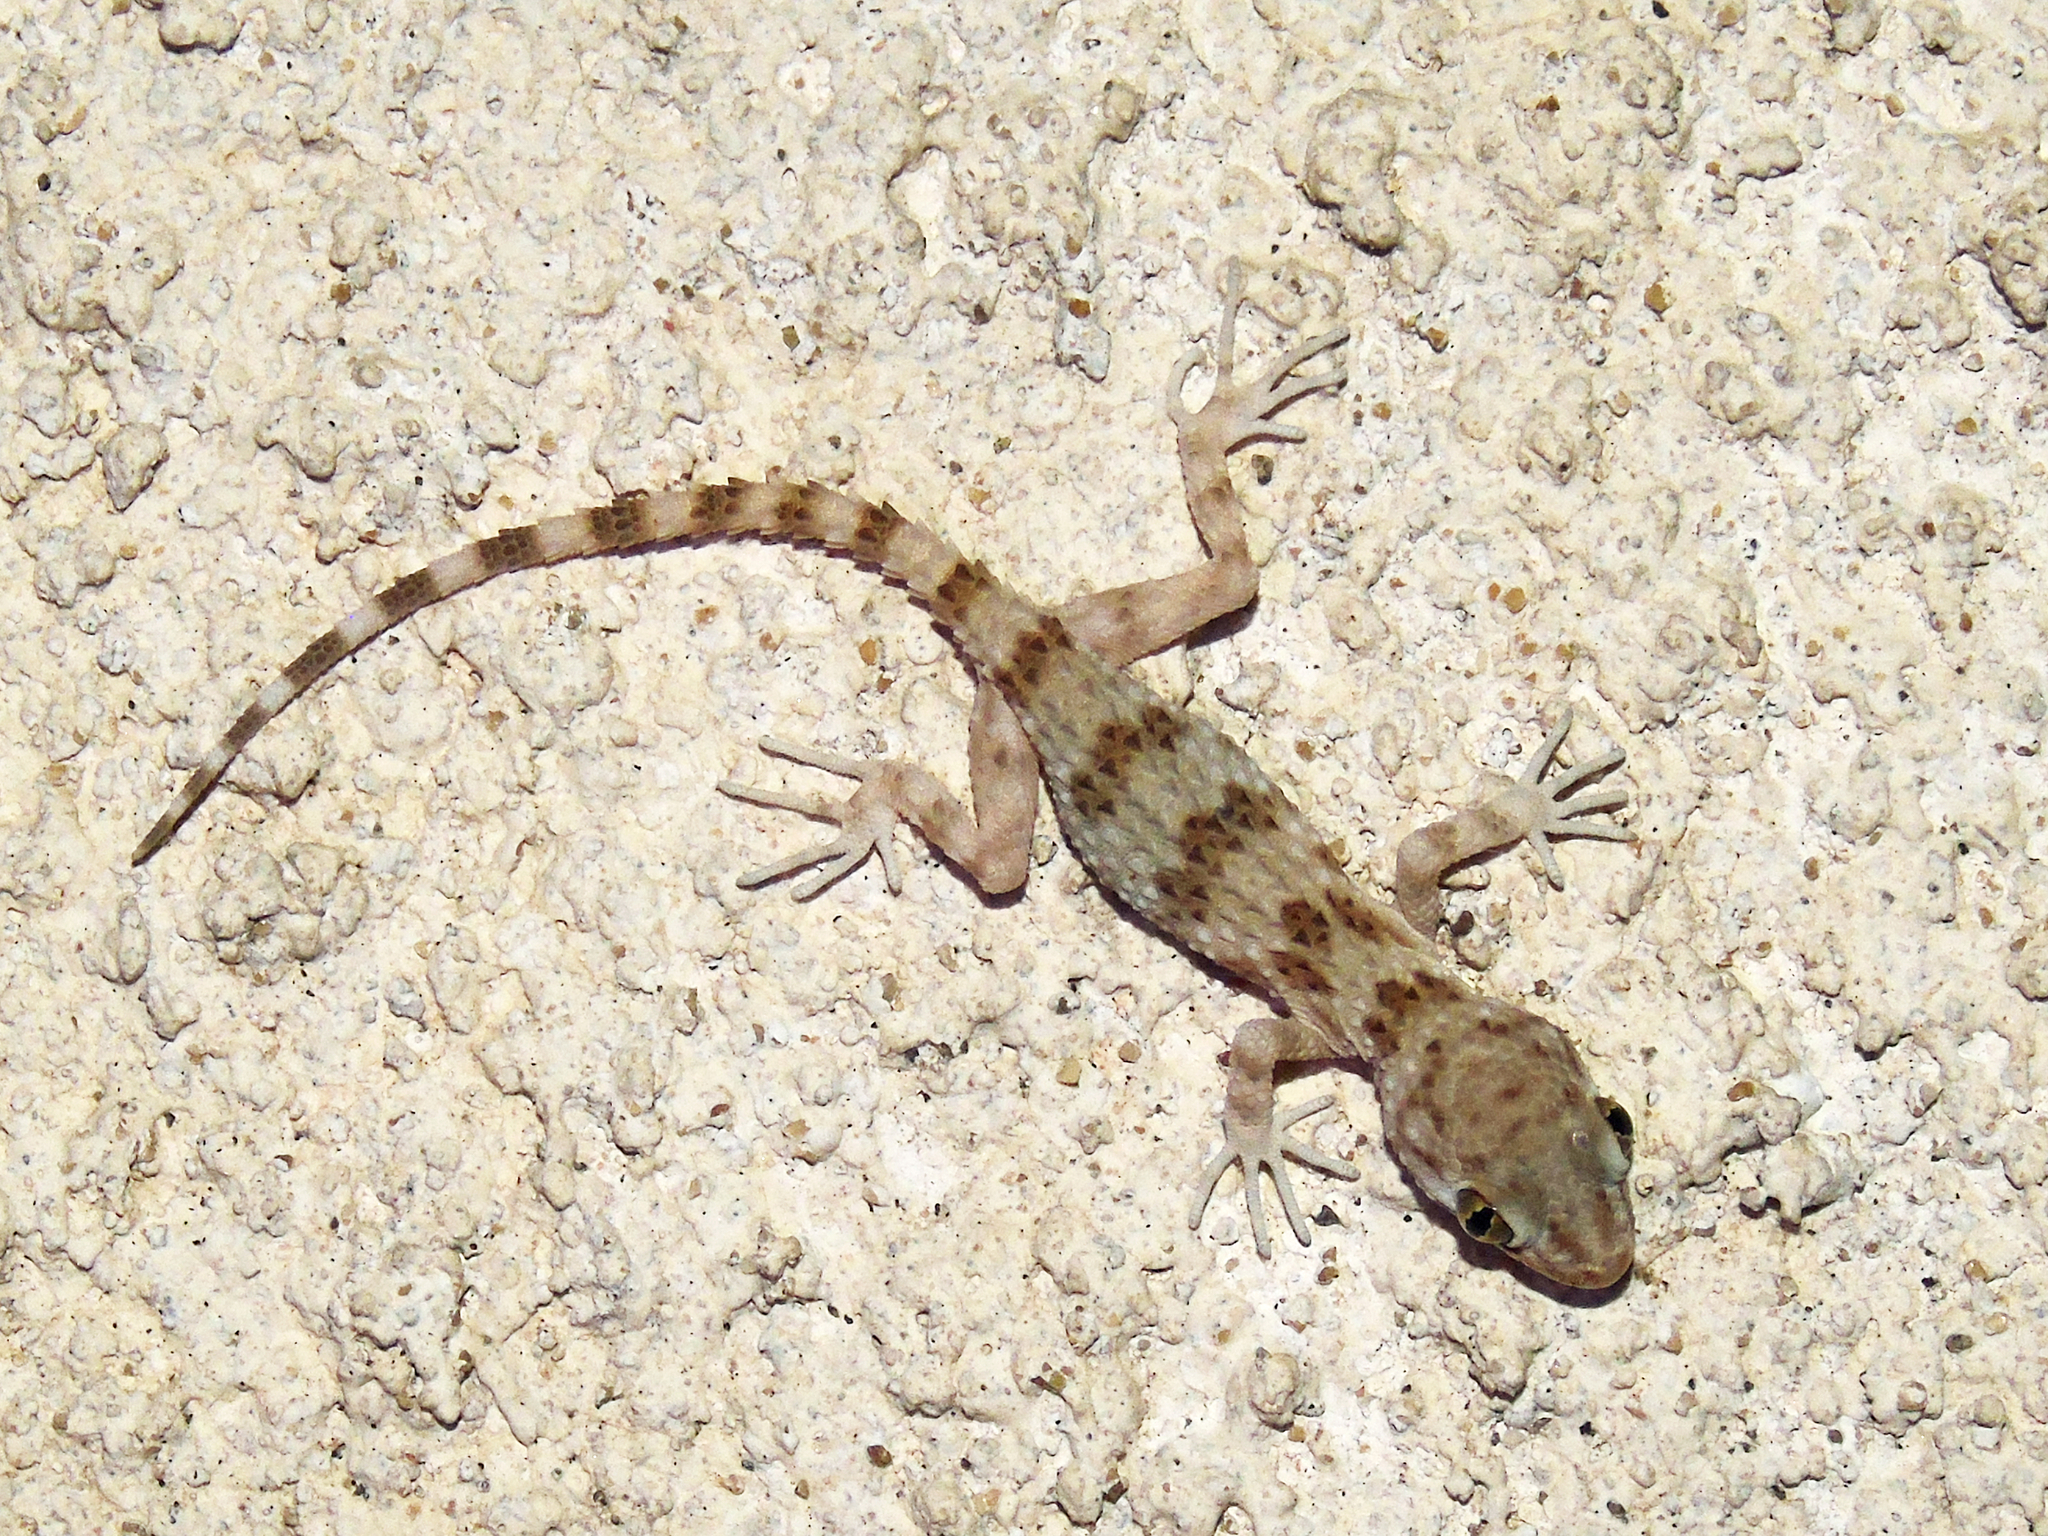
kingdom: Animalia
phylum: Chordata
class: Squamata
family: Gekkonidae
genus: Tenuidactylus
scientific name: Tenuidactylus caspius
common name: Caspian bent-toed gecko
